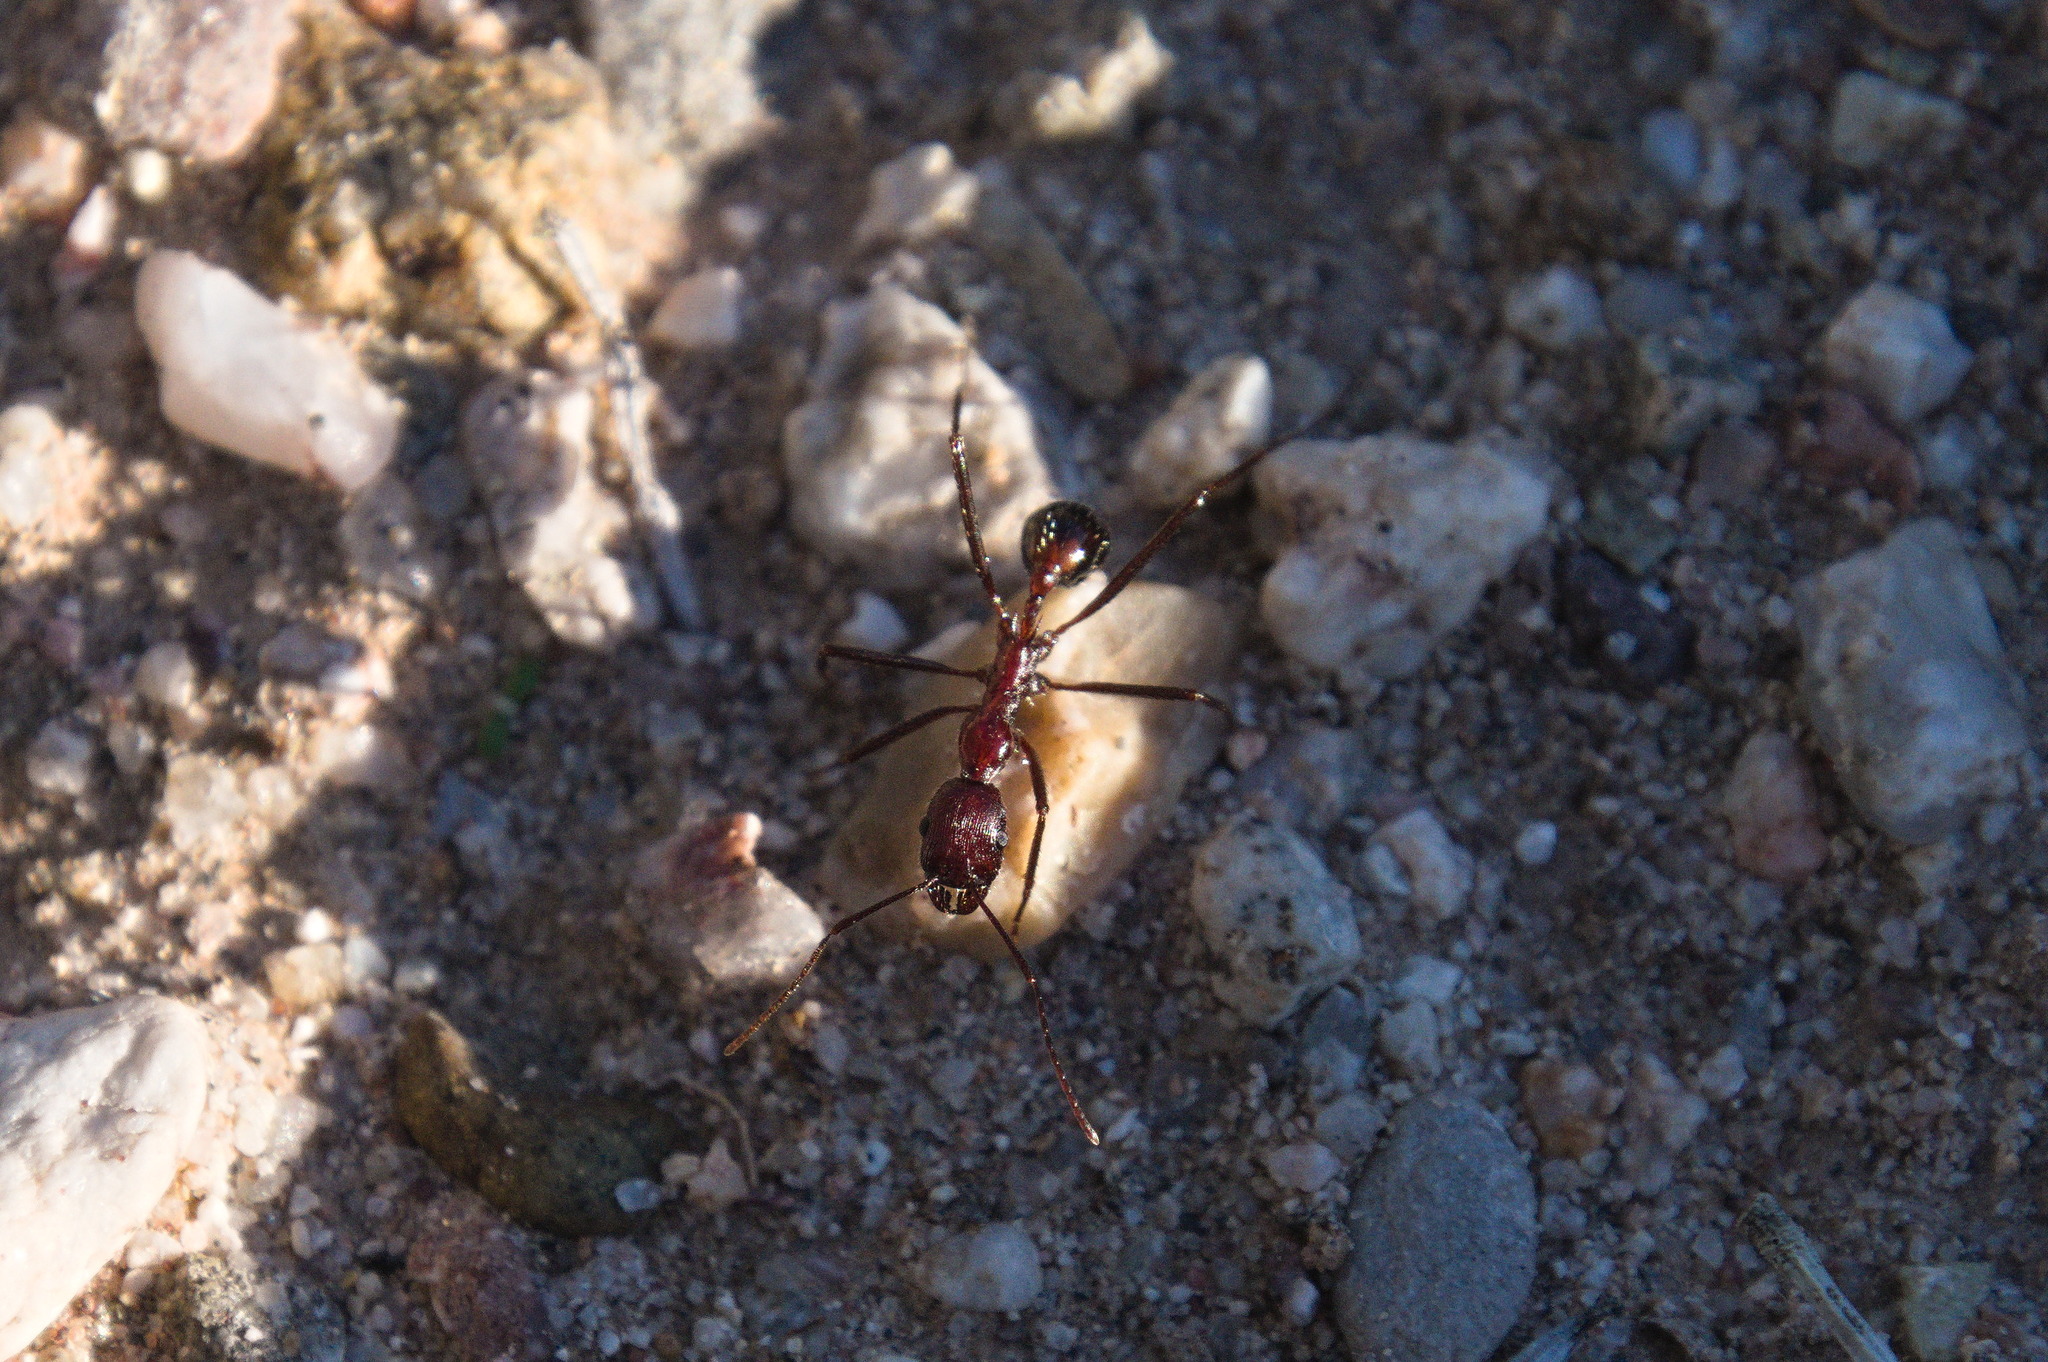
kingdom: Animalia
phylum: Arthropoda
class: Insecta
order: Hymenoptera
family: Formicidae
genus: Novomessor
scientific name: Novomessor cockerelli
